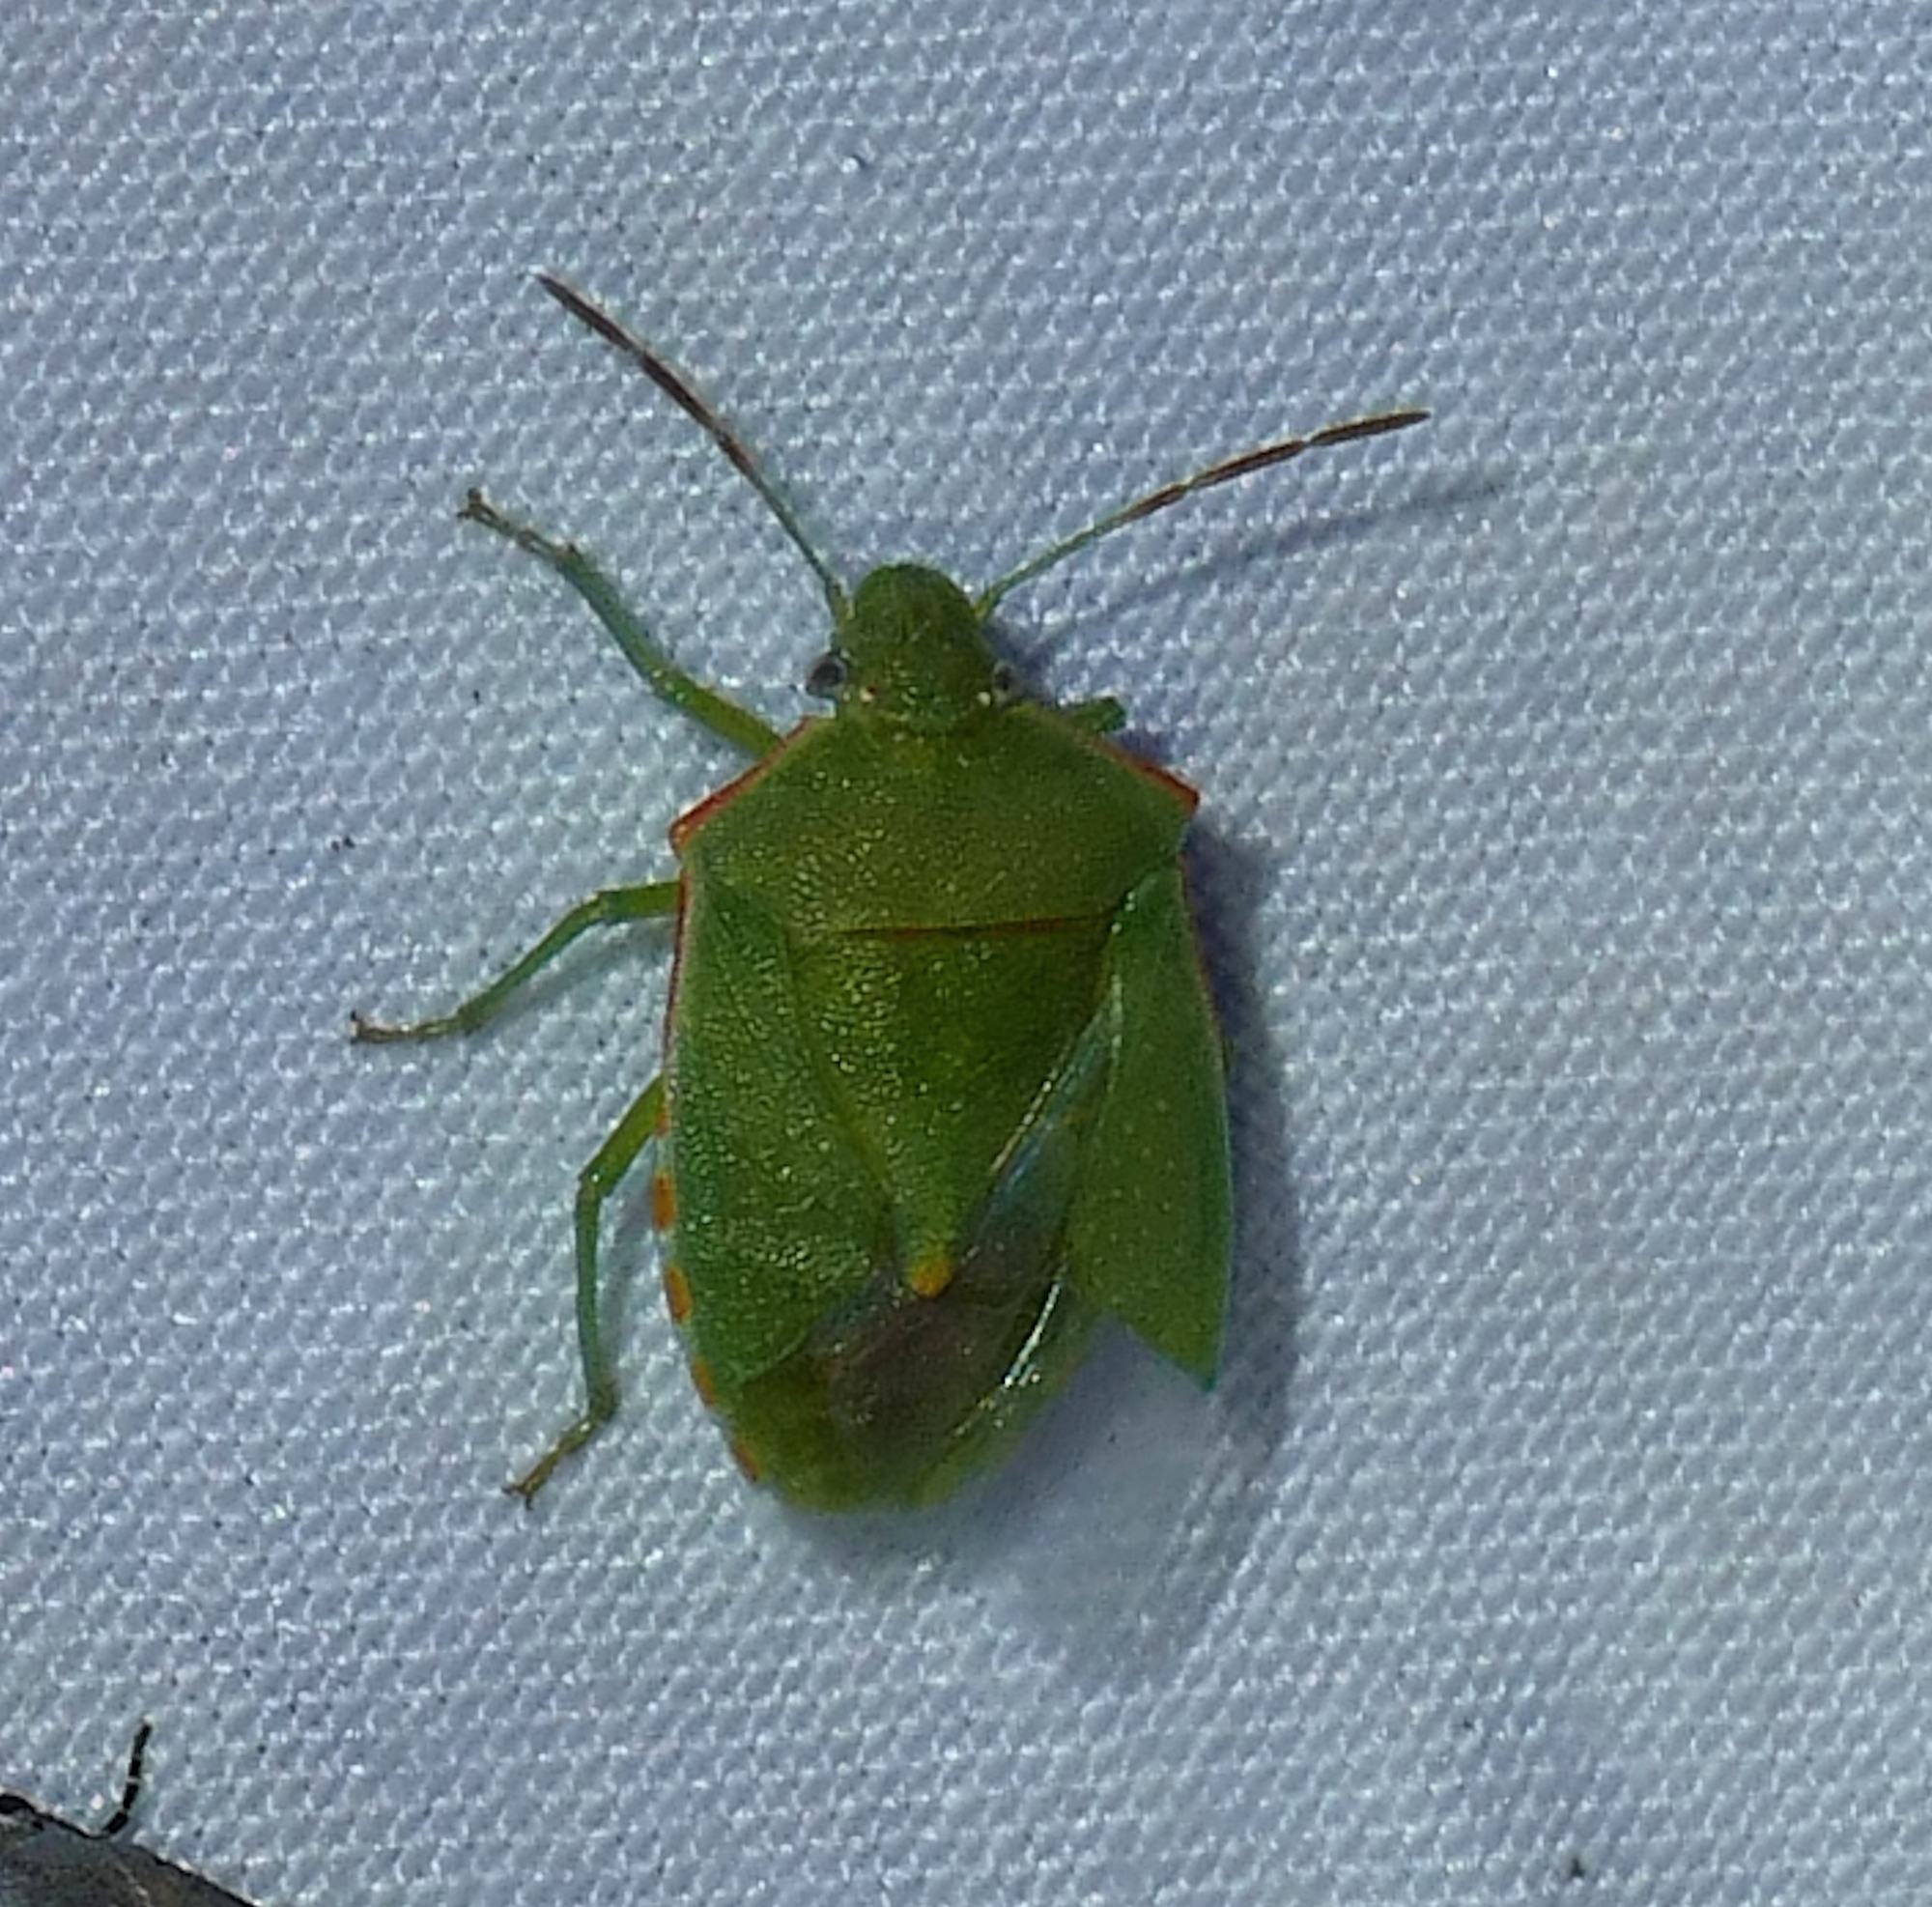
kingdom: Animalia
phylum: Arthropoda
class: Insecta
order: Hemiptera
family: Pentatomidae
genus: Thyanta
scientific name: Thyanta custator
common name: Stink bug
